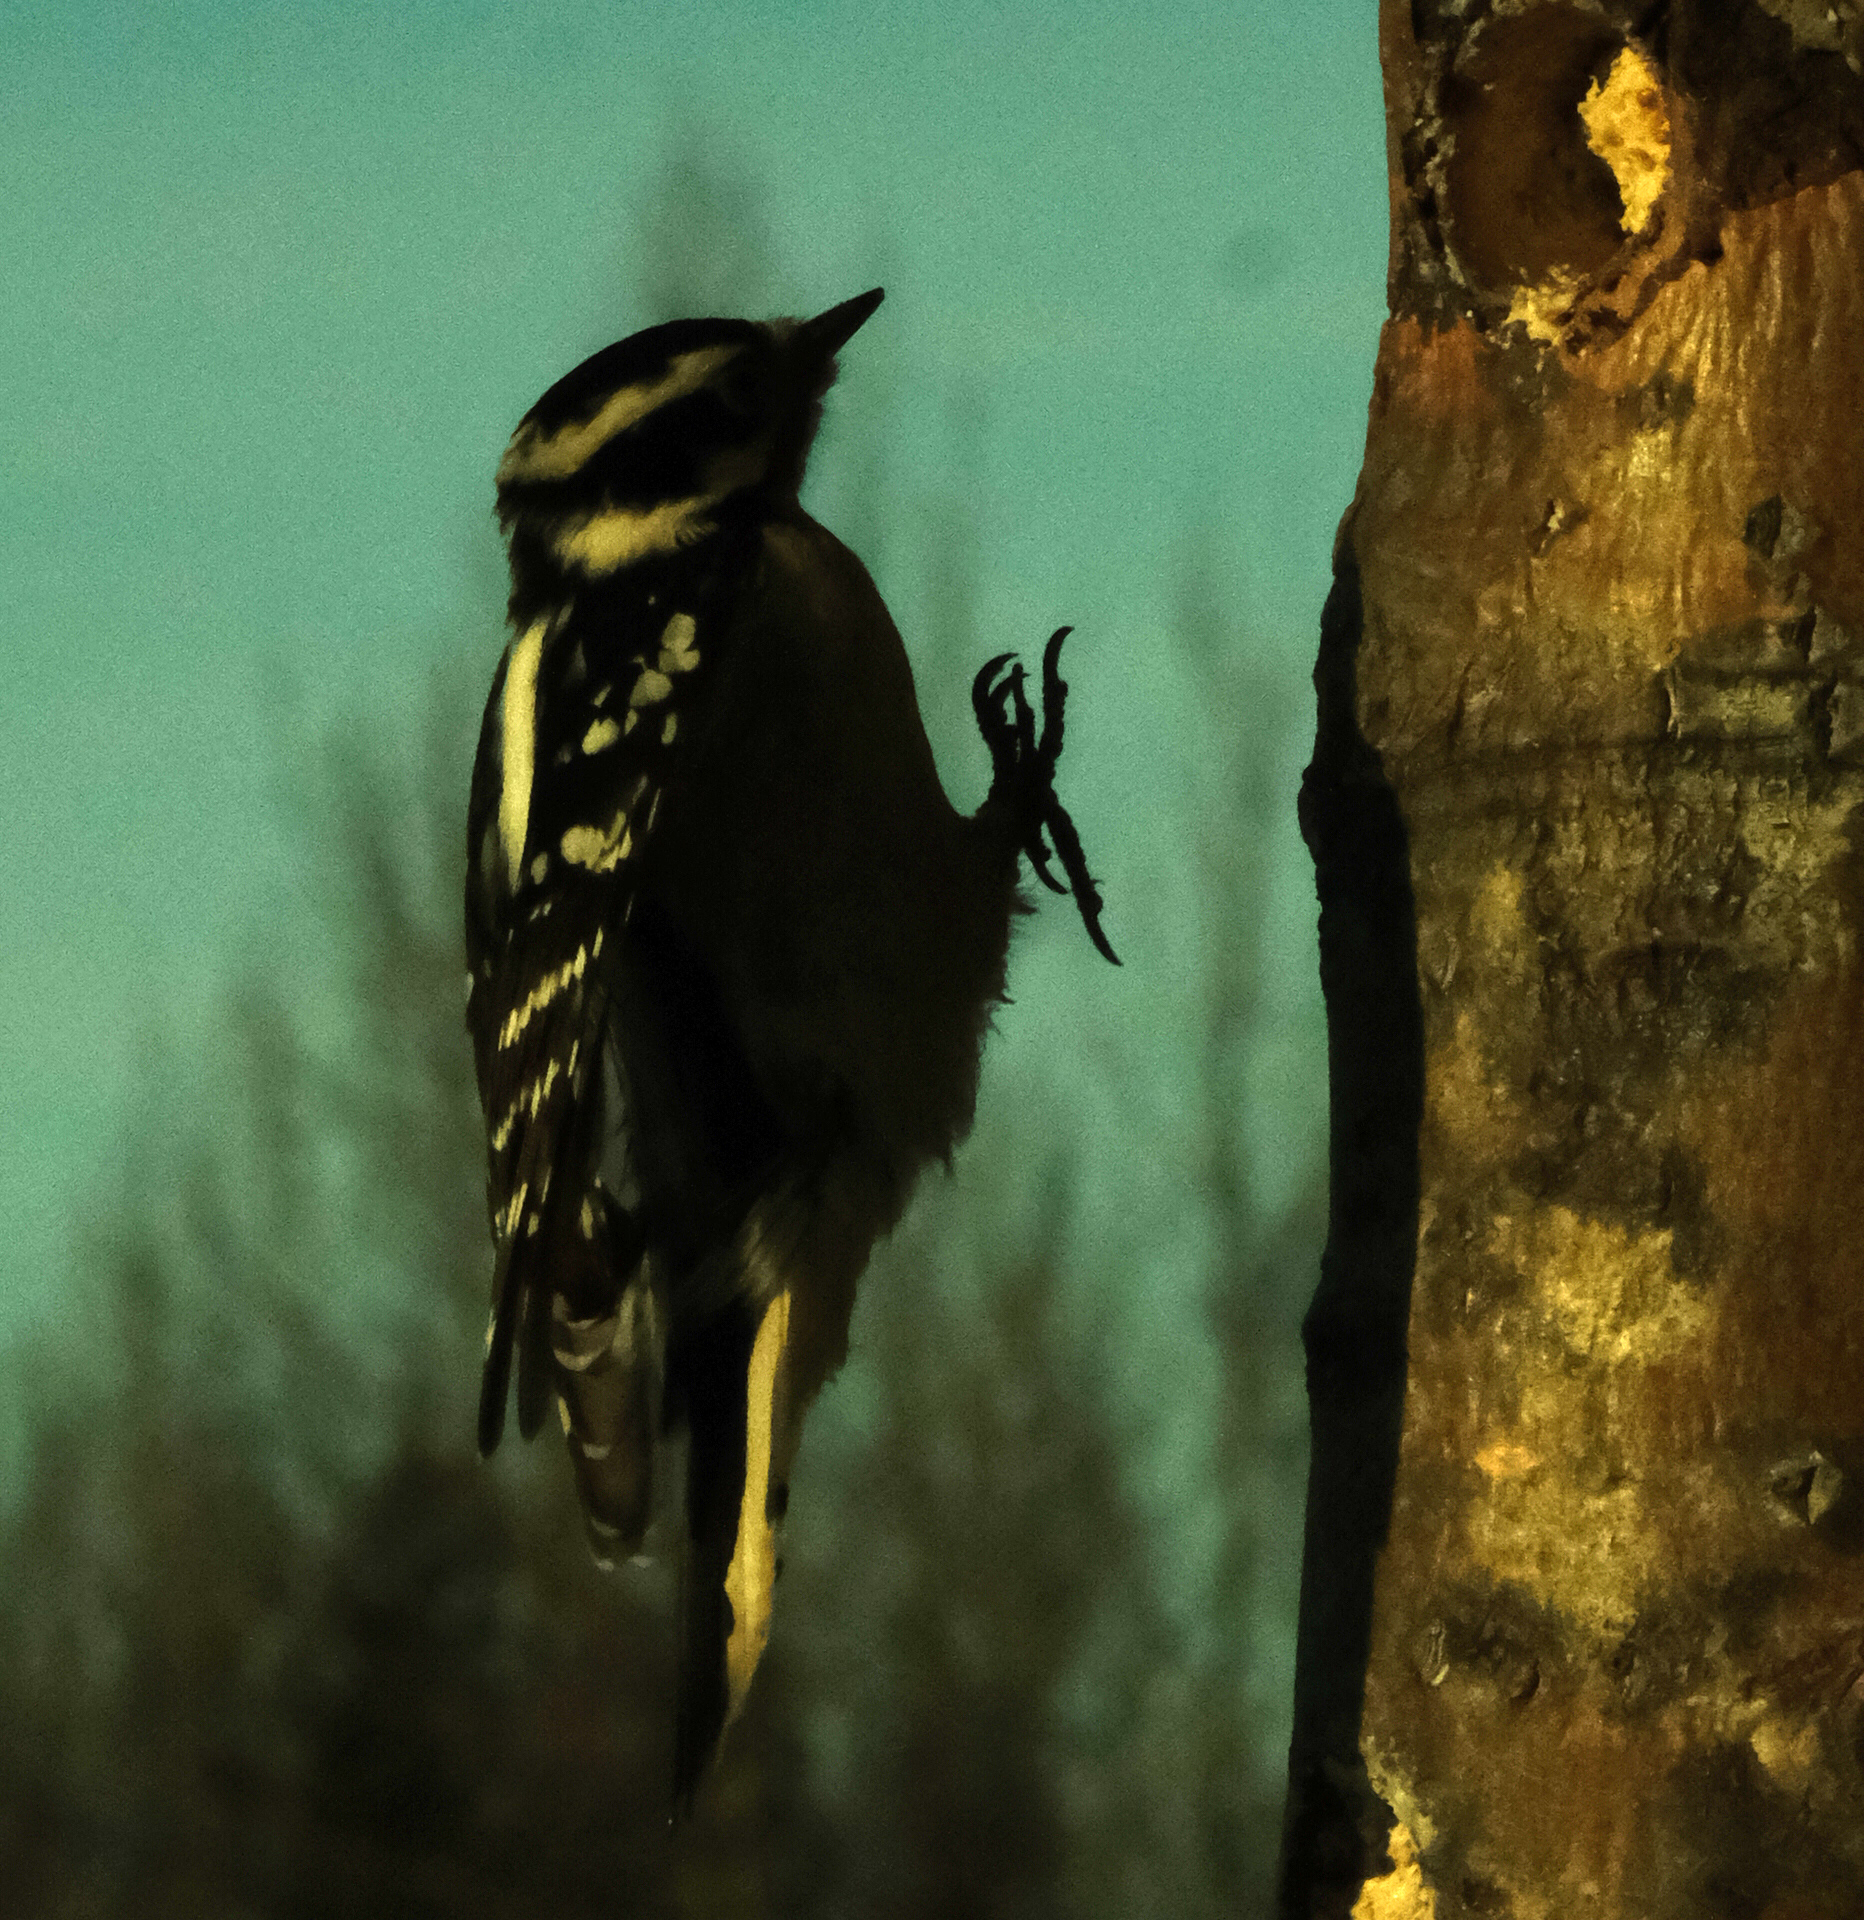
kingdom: Animalia
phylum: Chordata
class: Aves
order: Piciformes
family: Picidae
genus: Dryobates
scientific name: Dryobates pubescens
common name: Downy woodpecker
